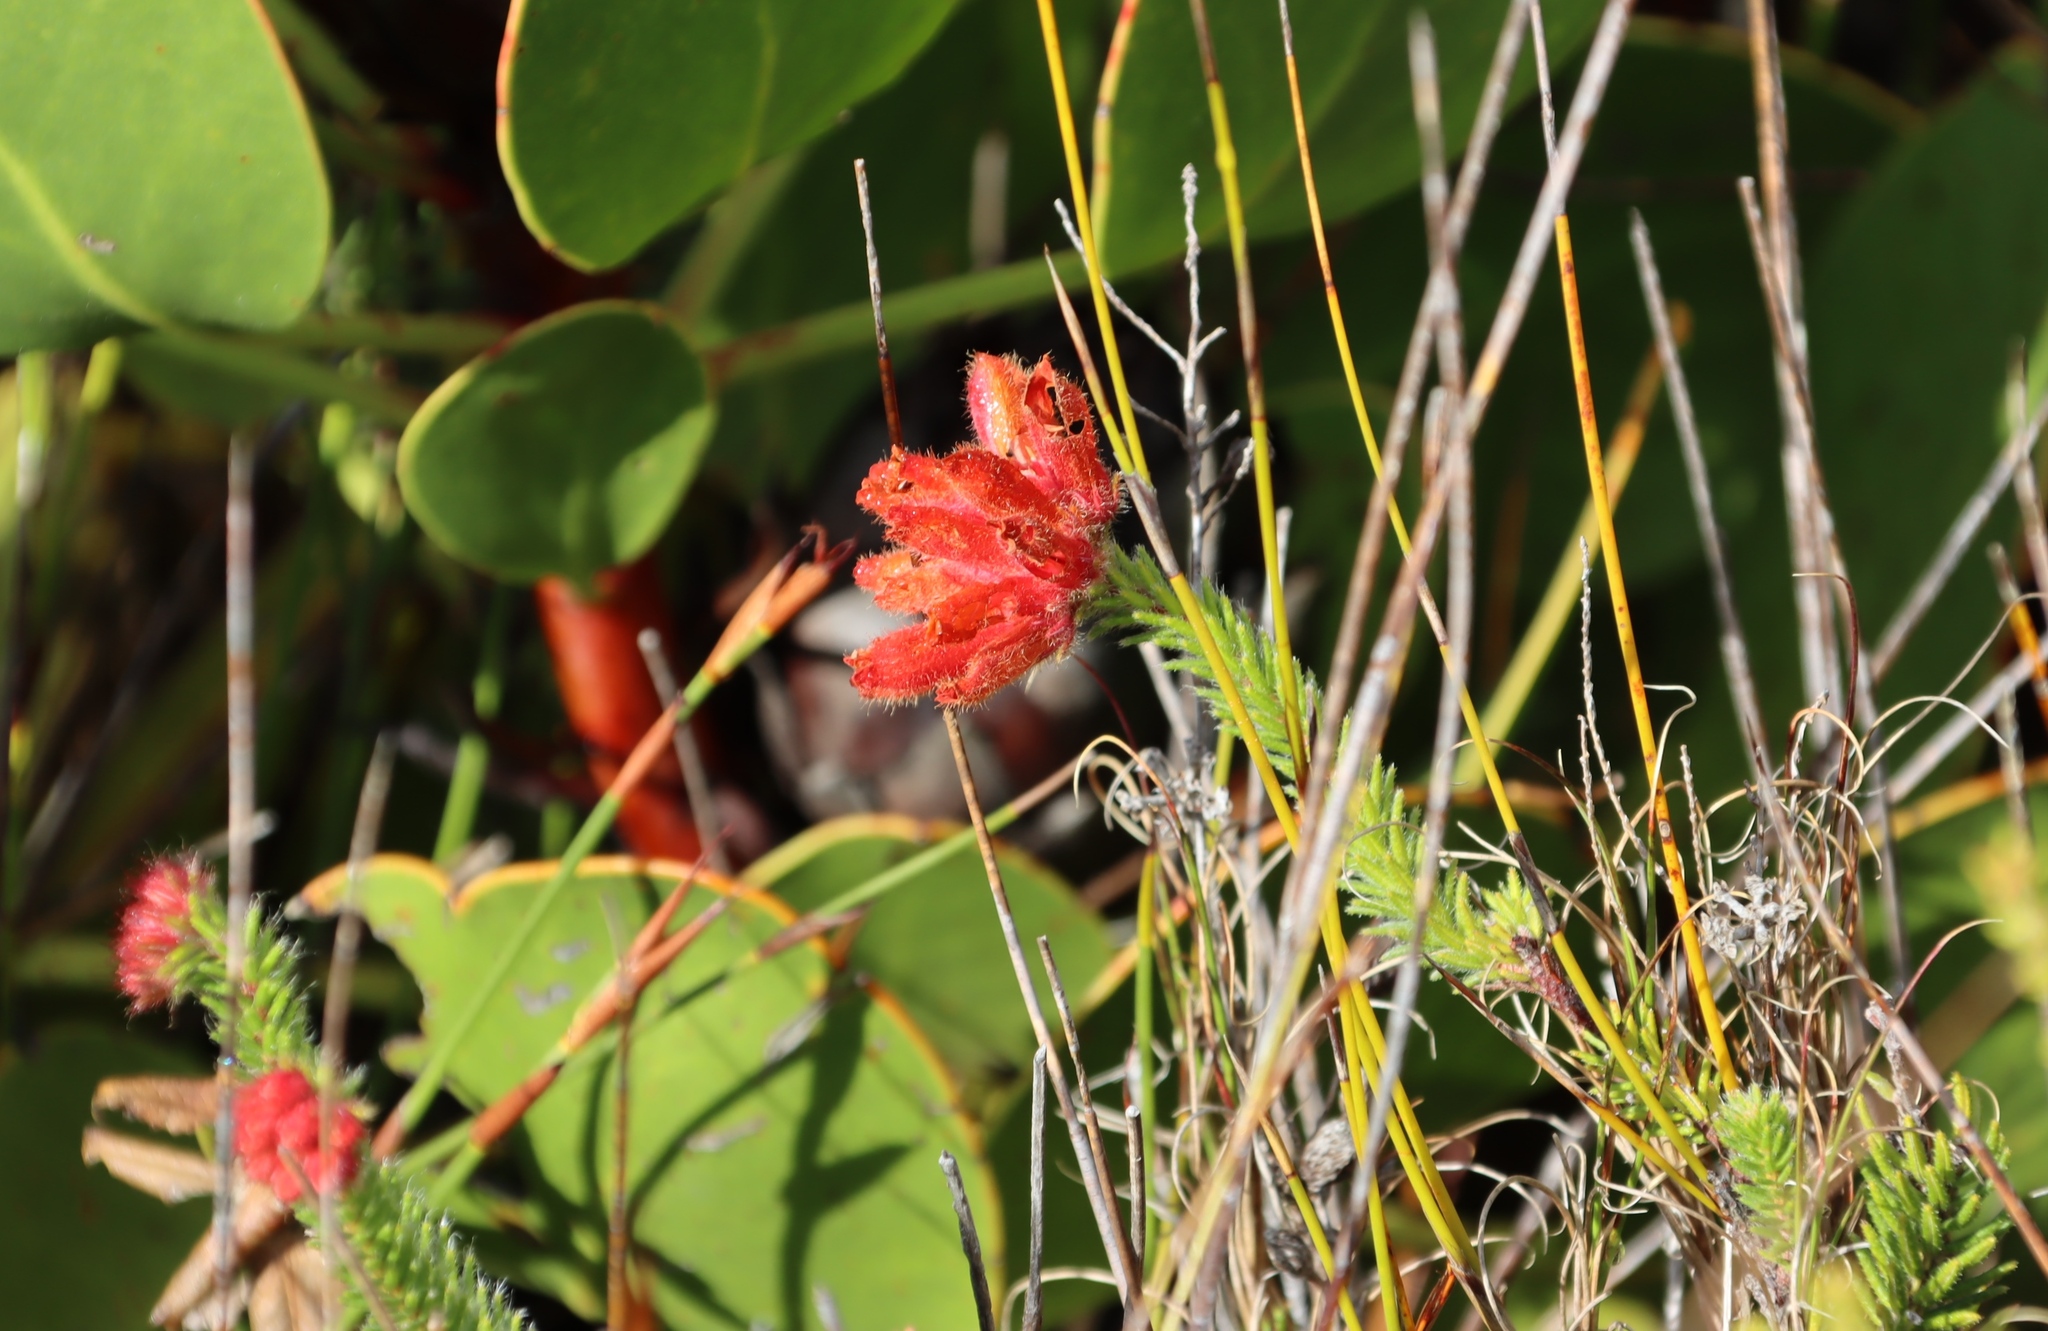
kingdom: Plantae
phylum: Tracheophyta
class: Magnoliopsida
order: Ericales
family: Ericaceae
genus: Erica
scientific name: Erica cerinthoides
